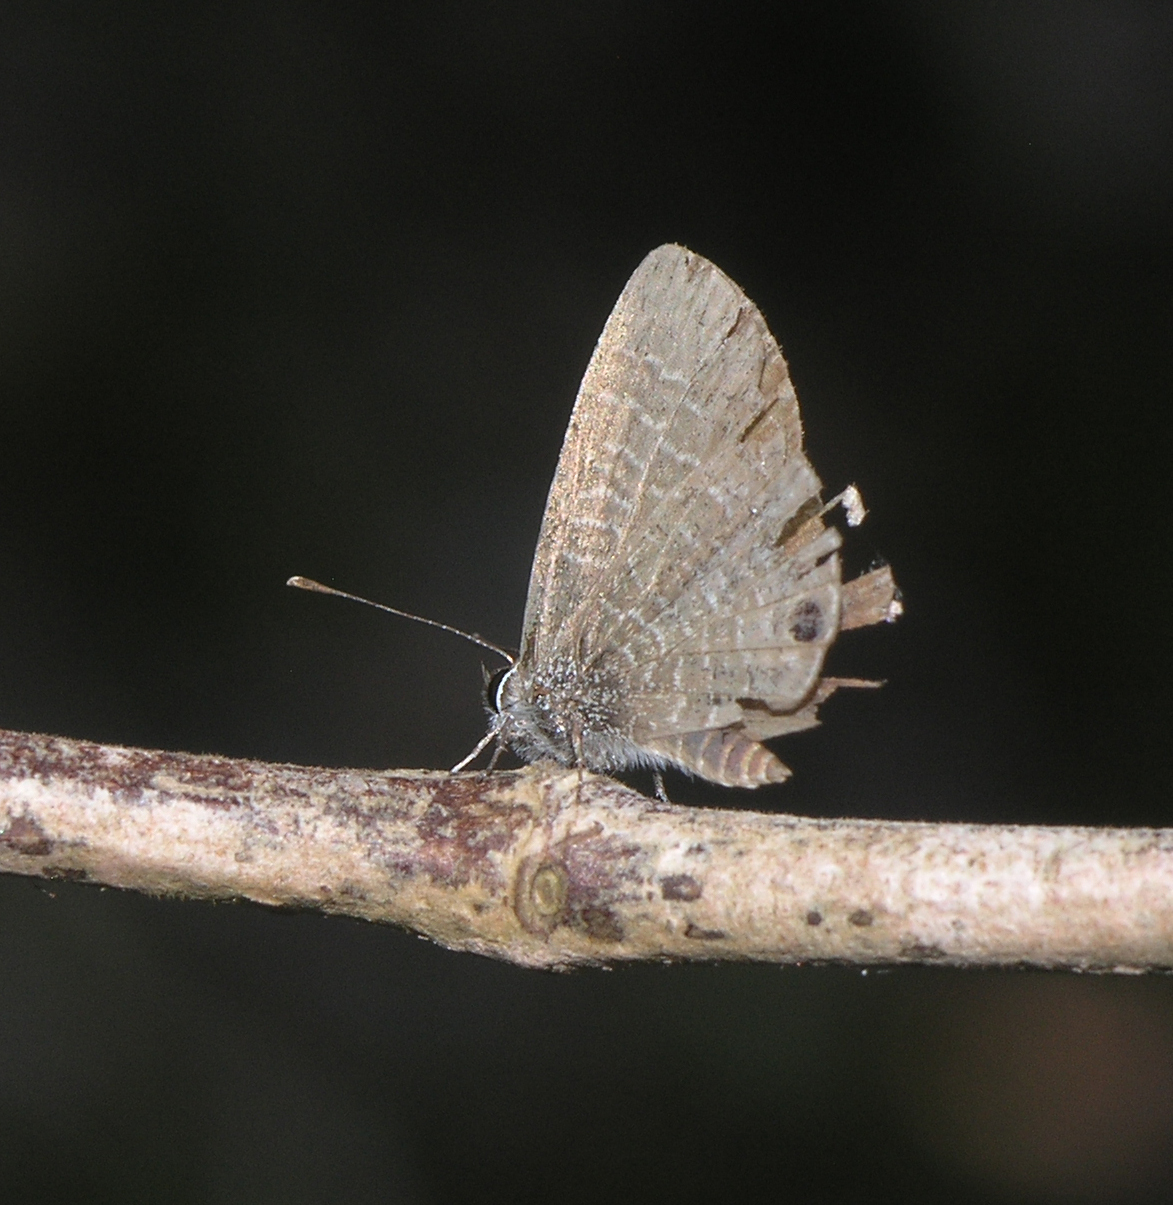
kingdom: Animalia
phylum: Arthropoda
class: Insecta
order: Lepidoptera
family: Lycaenidae
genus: Prosotas
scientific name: Prosotas dubiosa
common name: Tailless lineblue
